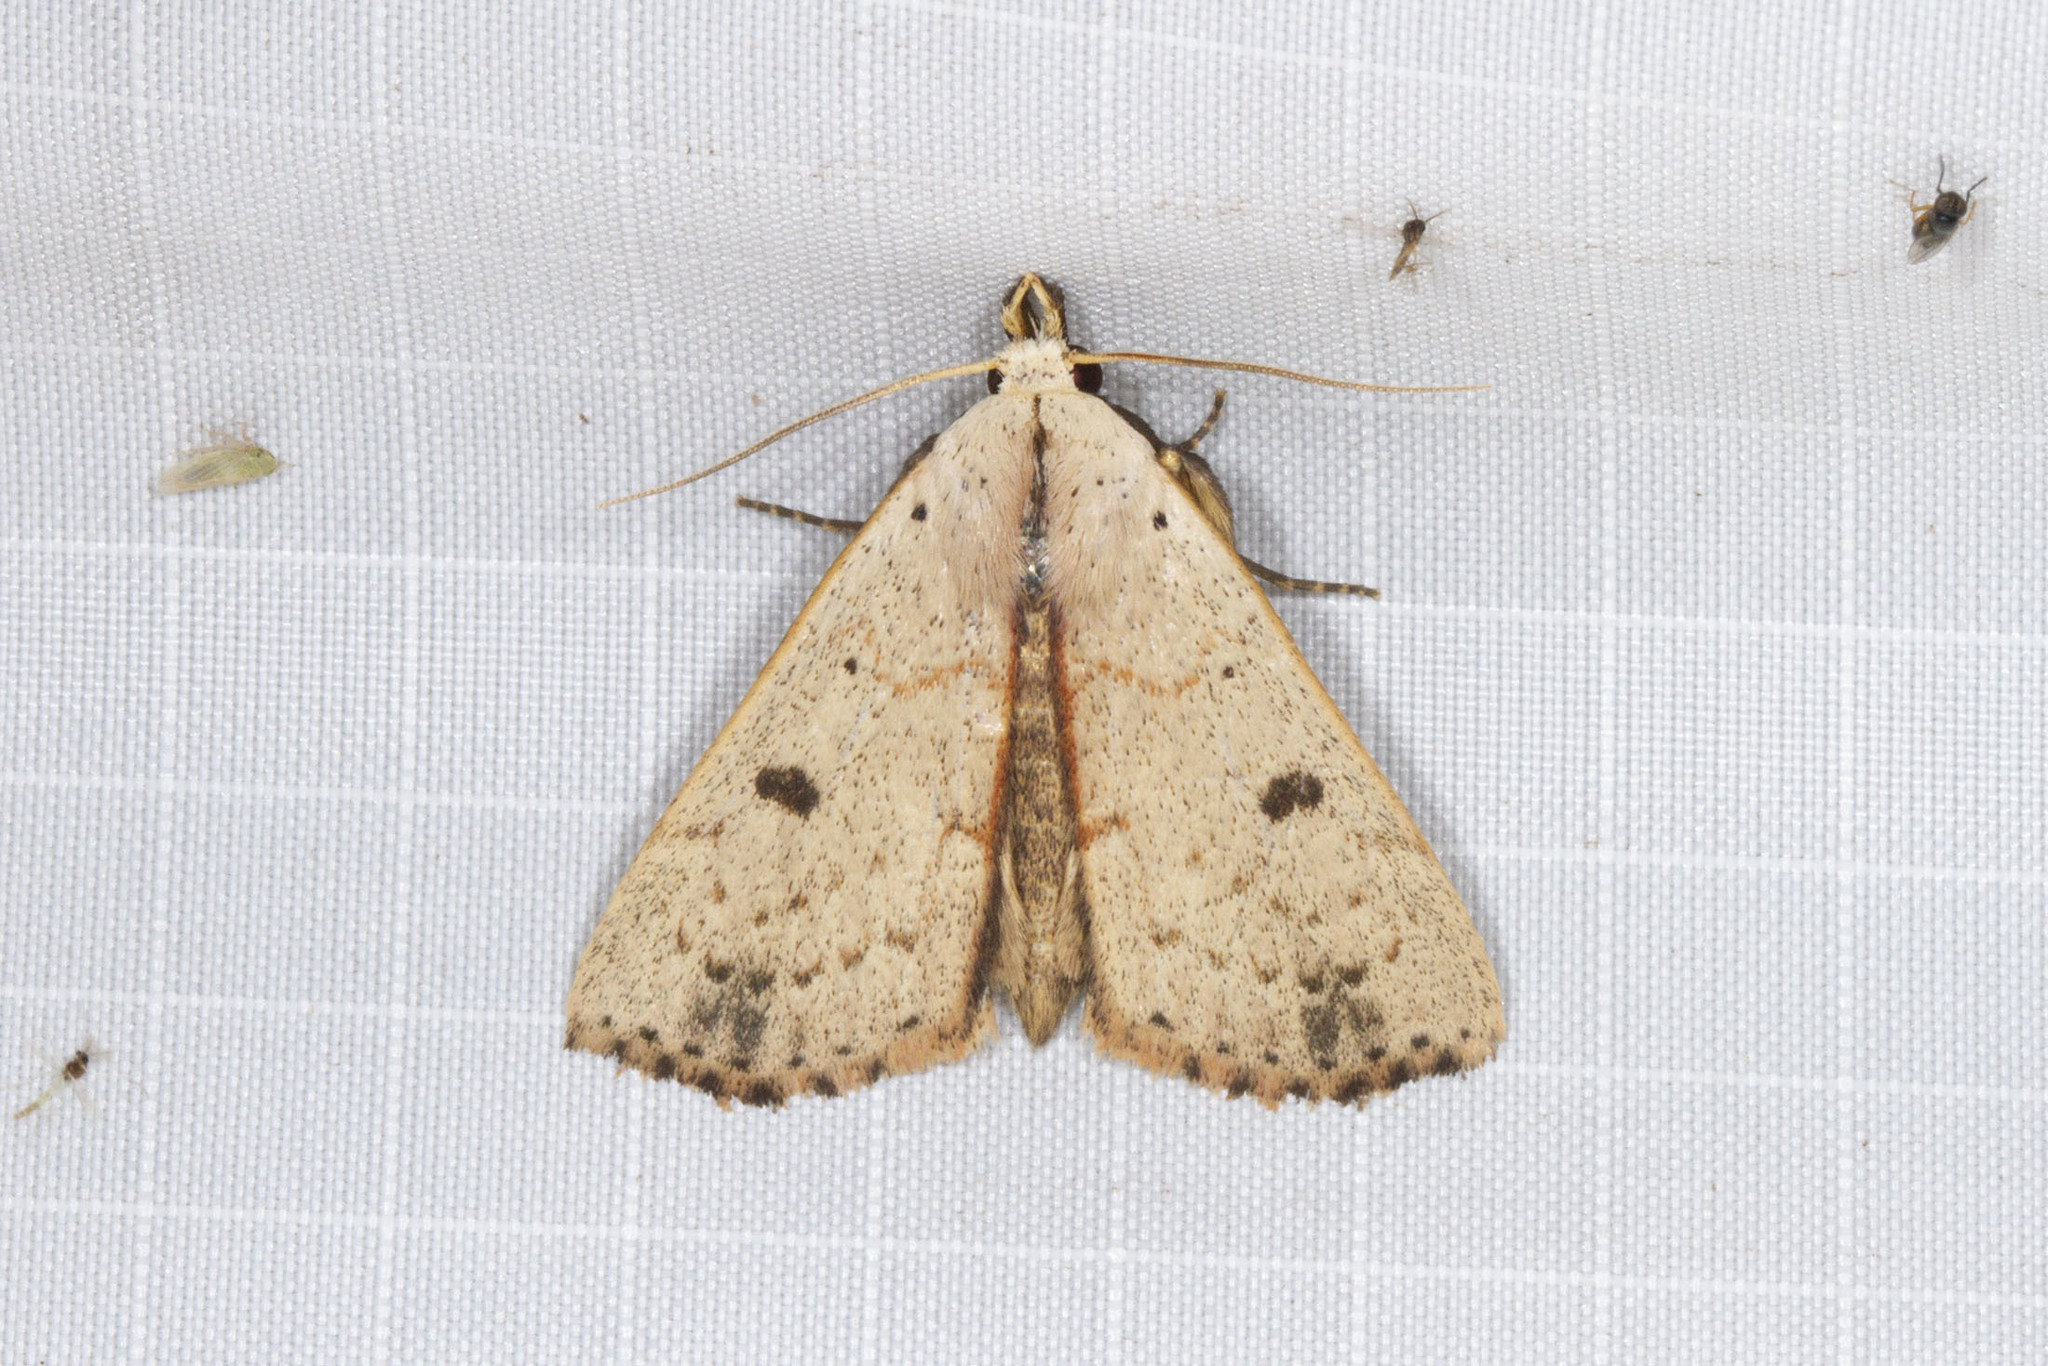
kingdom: Animalia
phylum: Arthropoda
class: Insecta
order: Lepidoptera
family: Erebidae
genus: Scolecocampa
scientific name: Scolecocampa liburna
